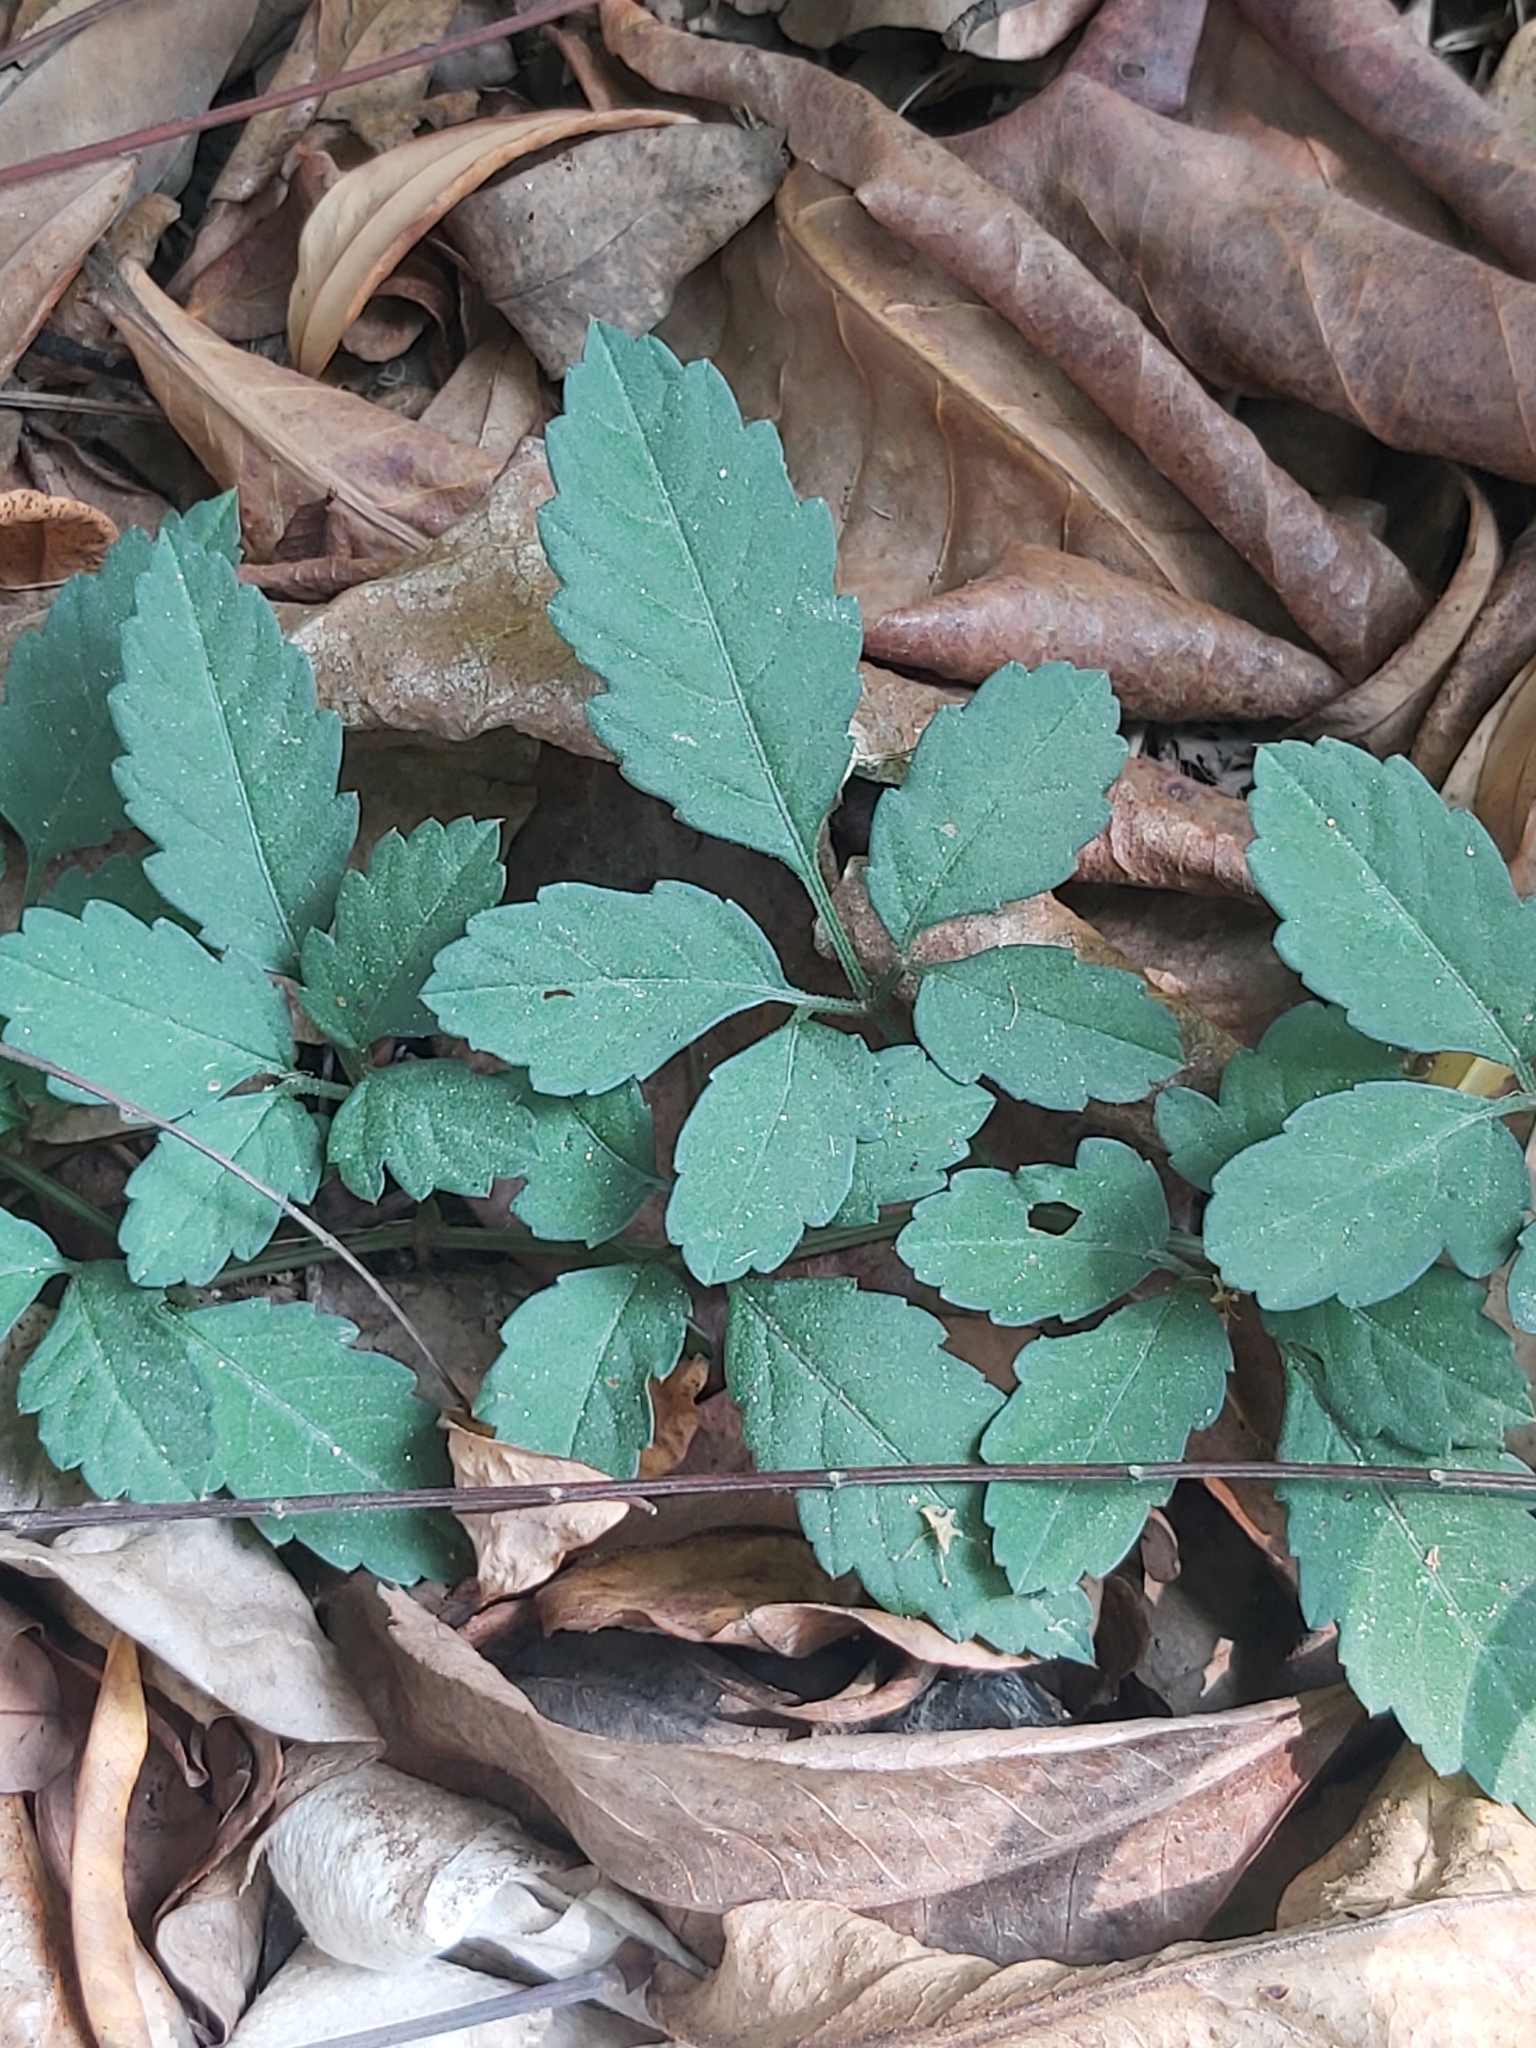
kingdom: Plantae
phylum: Tracheophyta
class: Magnoliopsida
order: Vitales
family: Vitaceae
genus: Causonis
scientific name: Causonis japonica
